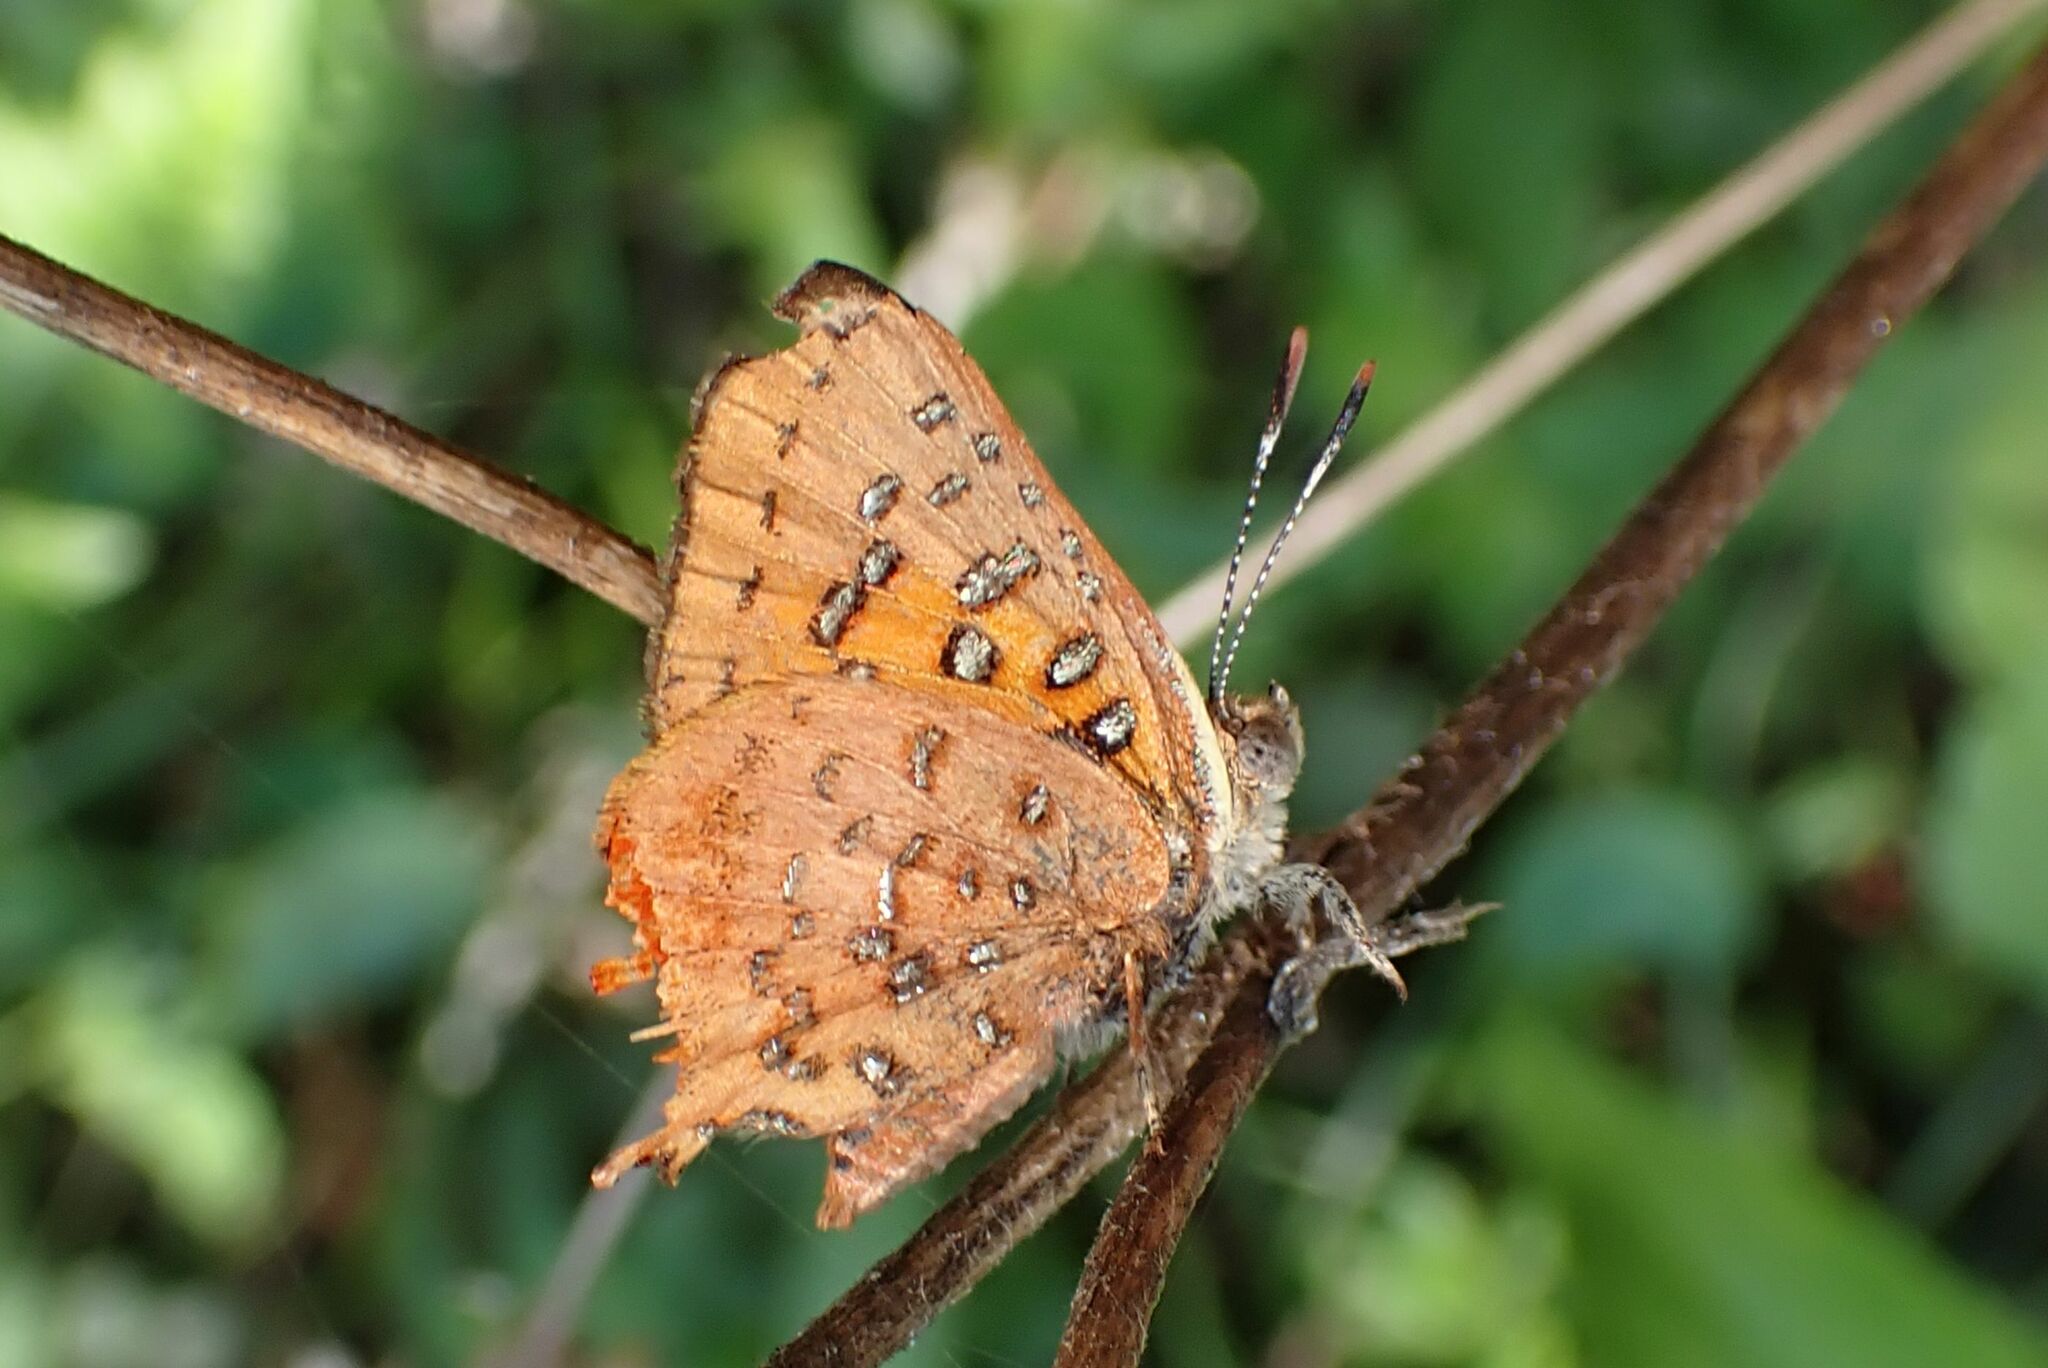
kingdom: Animalia
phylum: Arthropoda
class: Insecta
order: Lepidoptera
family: Lycaenidae
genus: Axiocerses
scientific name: Axiocerses perion
